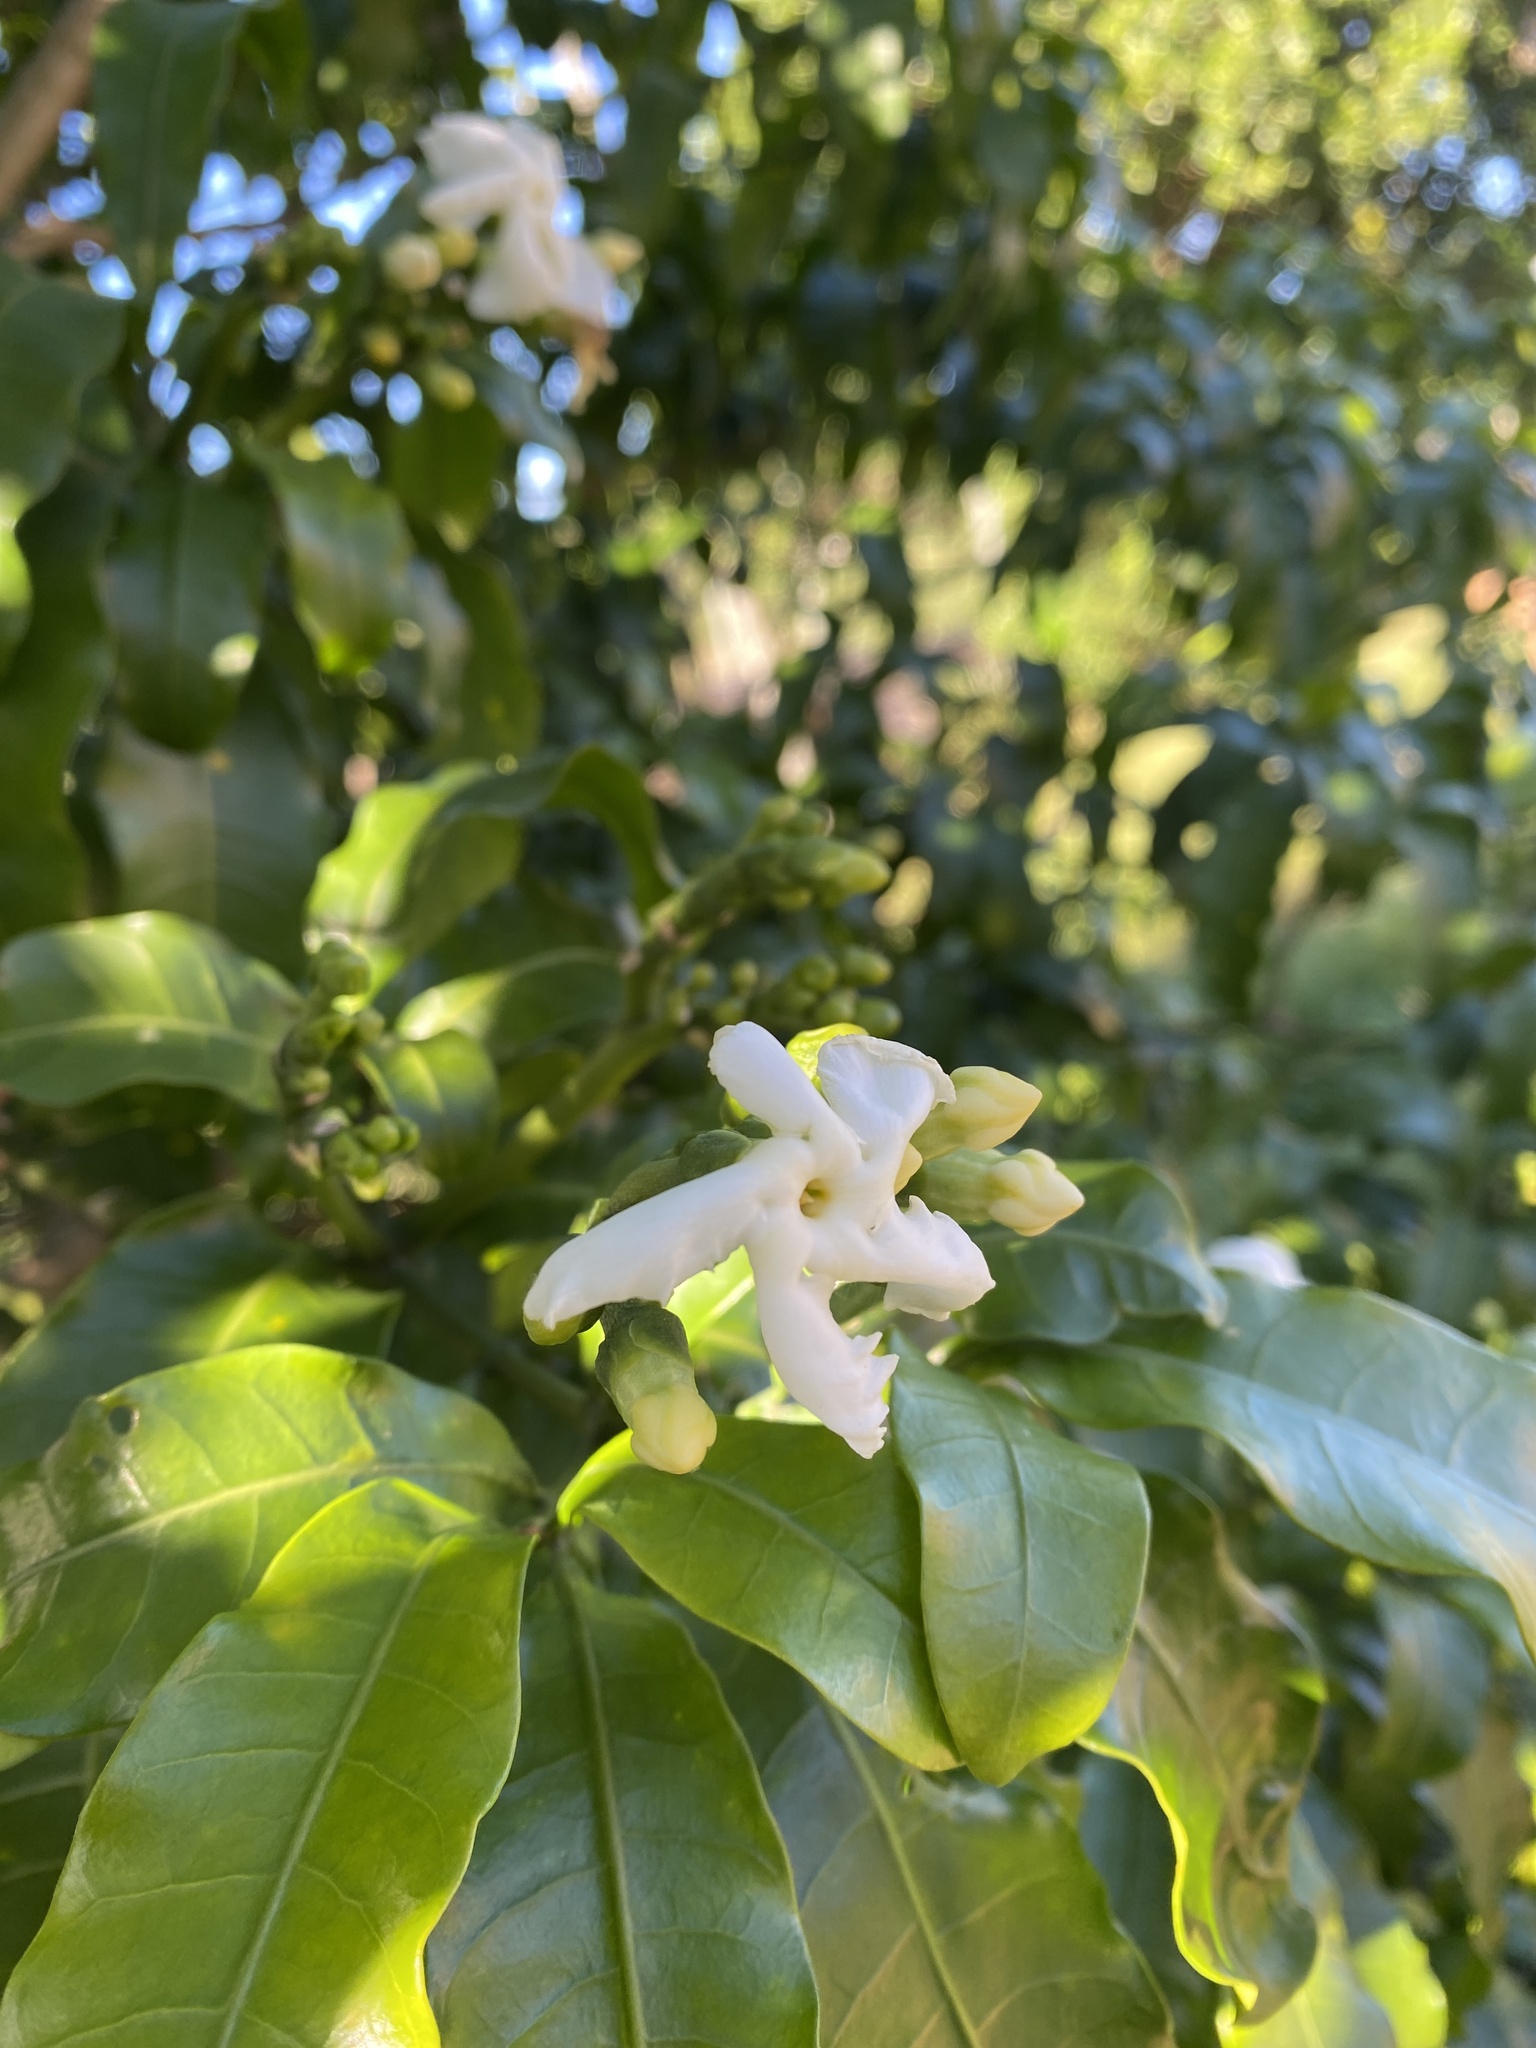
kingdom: Plantae
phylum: Tracheophyta
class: Magnoliopsida
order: Gentianales
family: Apocynaceae
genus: Tabernaemontana
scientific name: Tabernaemontana ventricosa
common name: Forest toad-tree
